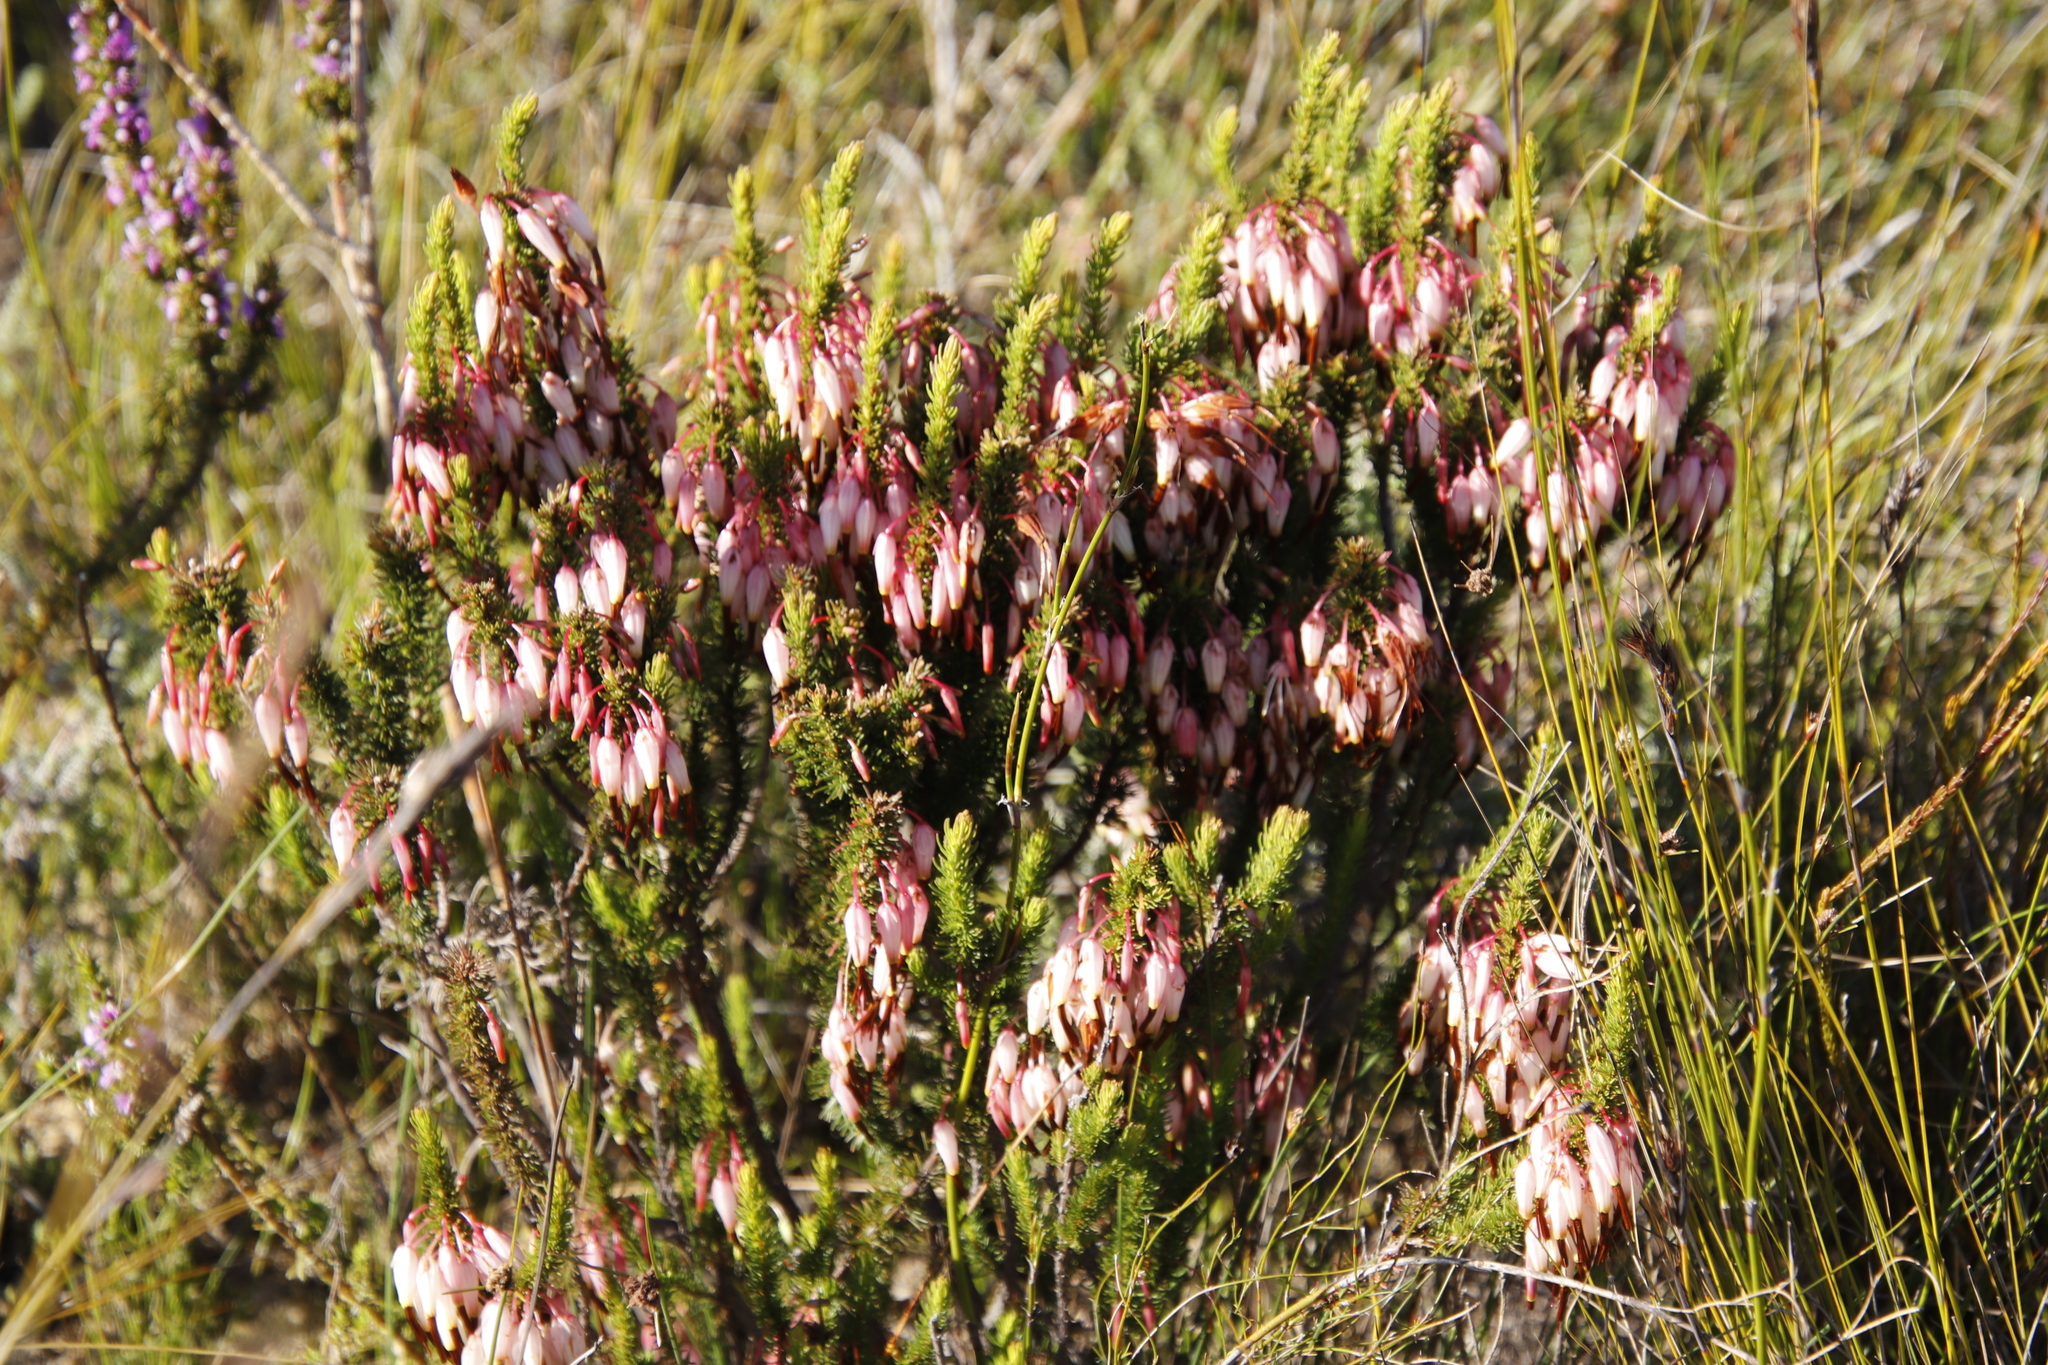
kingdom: Plantae
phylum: Tracheophyta
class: Magnoliopsida
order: Ericales
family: Ericaceae
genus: Erica
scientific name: Erica plukenetii
